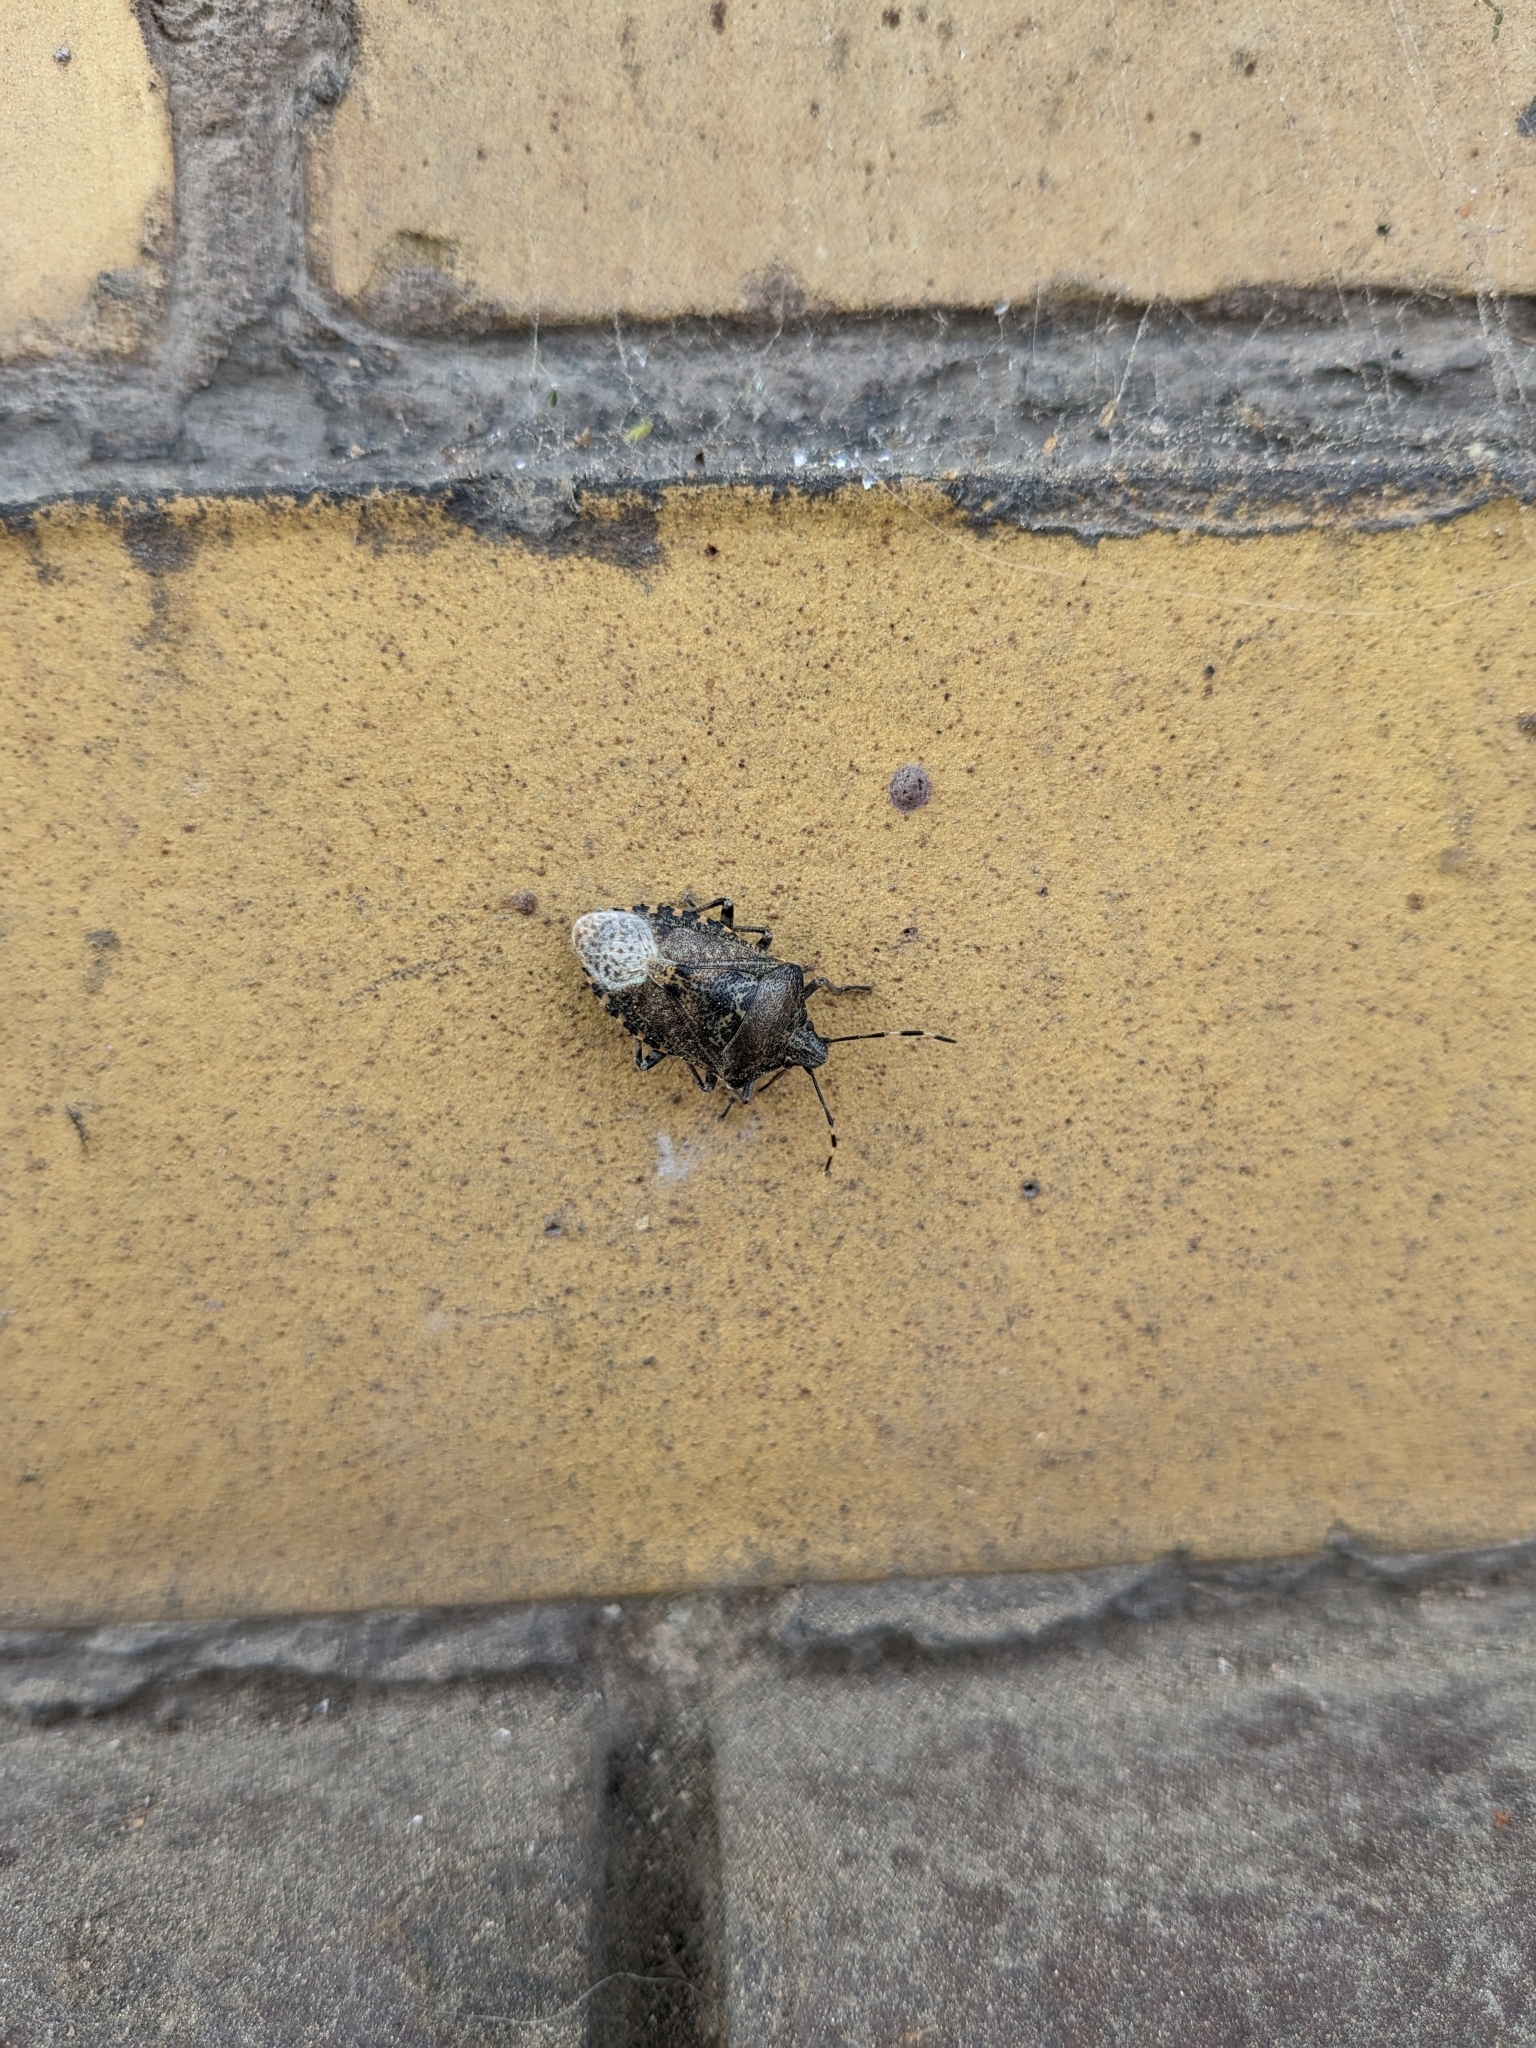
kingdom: Animalia
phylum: Arthropoda
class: Insecta
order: Hemiptera
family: Pentatomidae
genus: Rhaphigaster
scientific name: Rhaphigaster nebulosa
